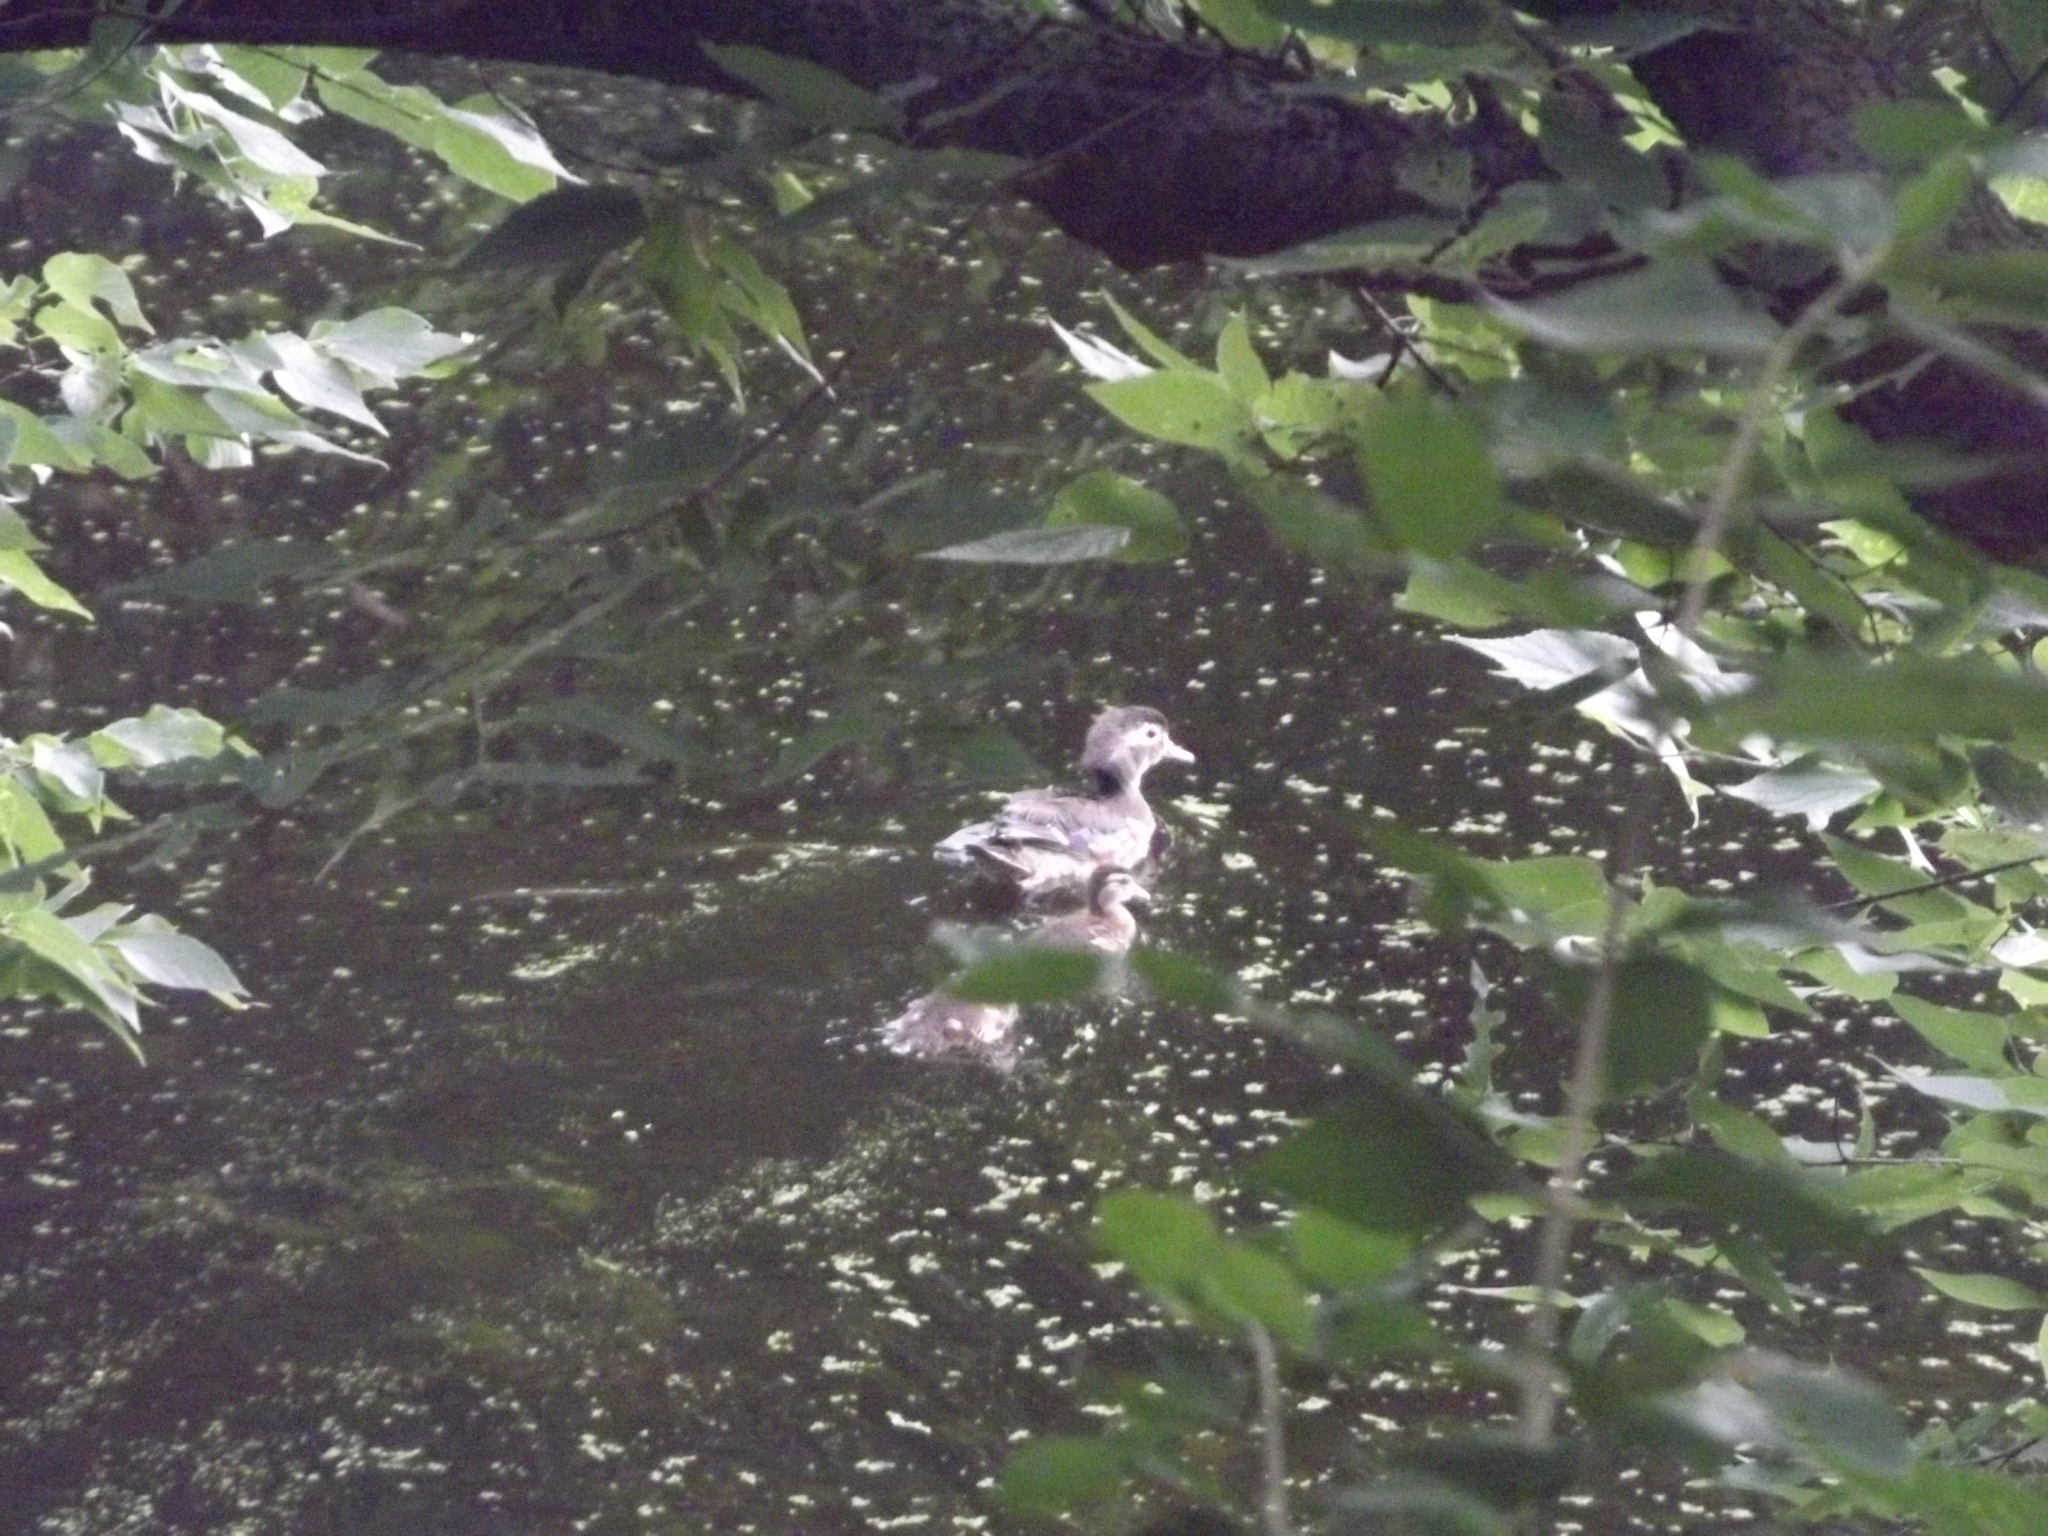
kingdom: Animalia
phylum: Chordata
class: Aves
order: Anseriformes
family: Anatidae
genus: Aix
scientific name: Aix sponsa
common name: Wood duck
